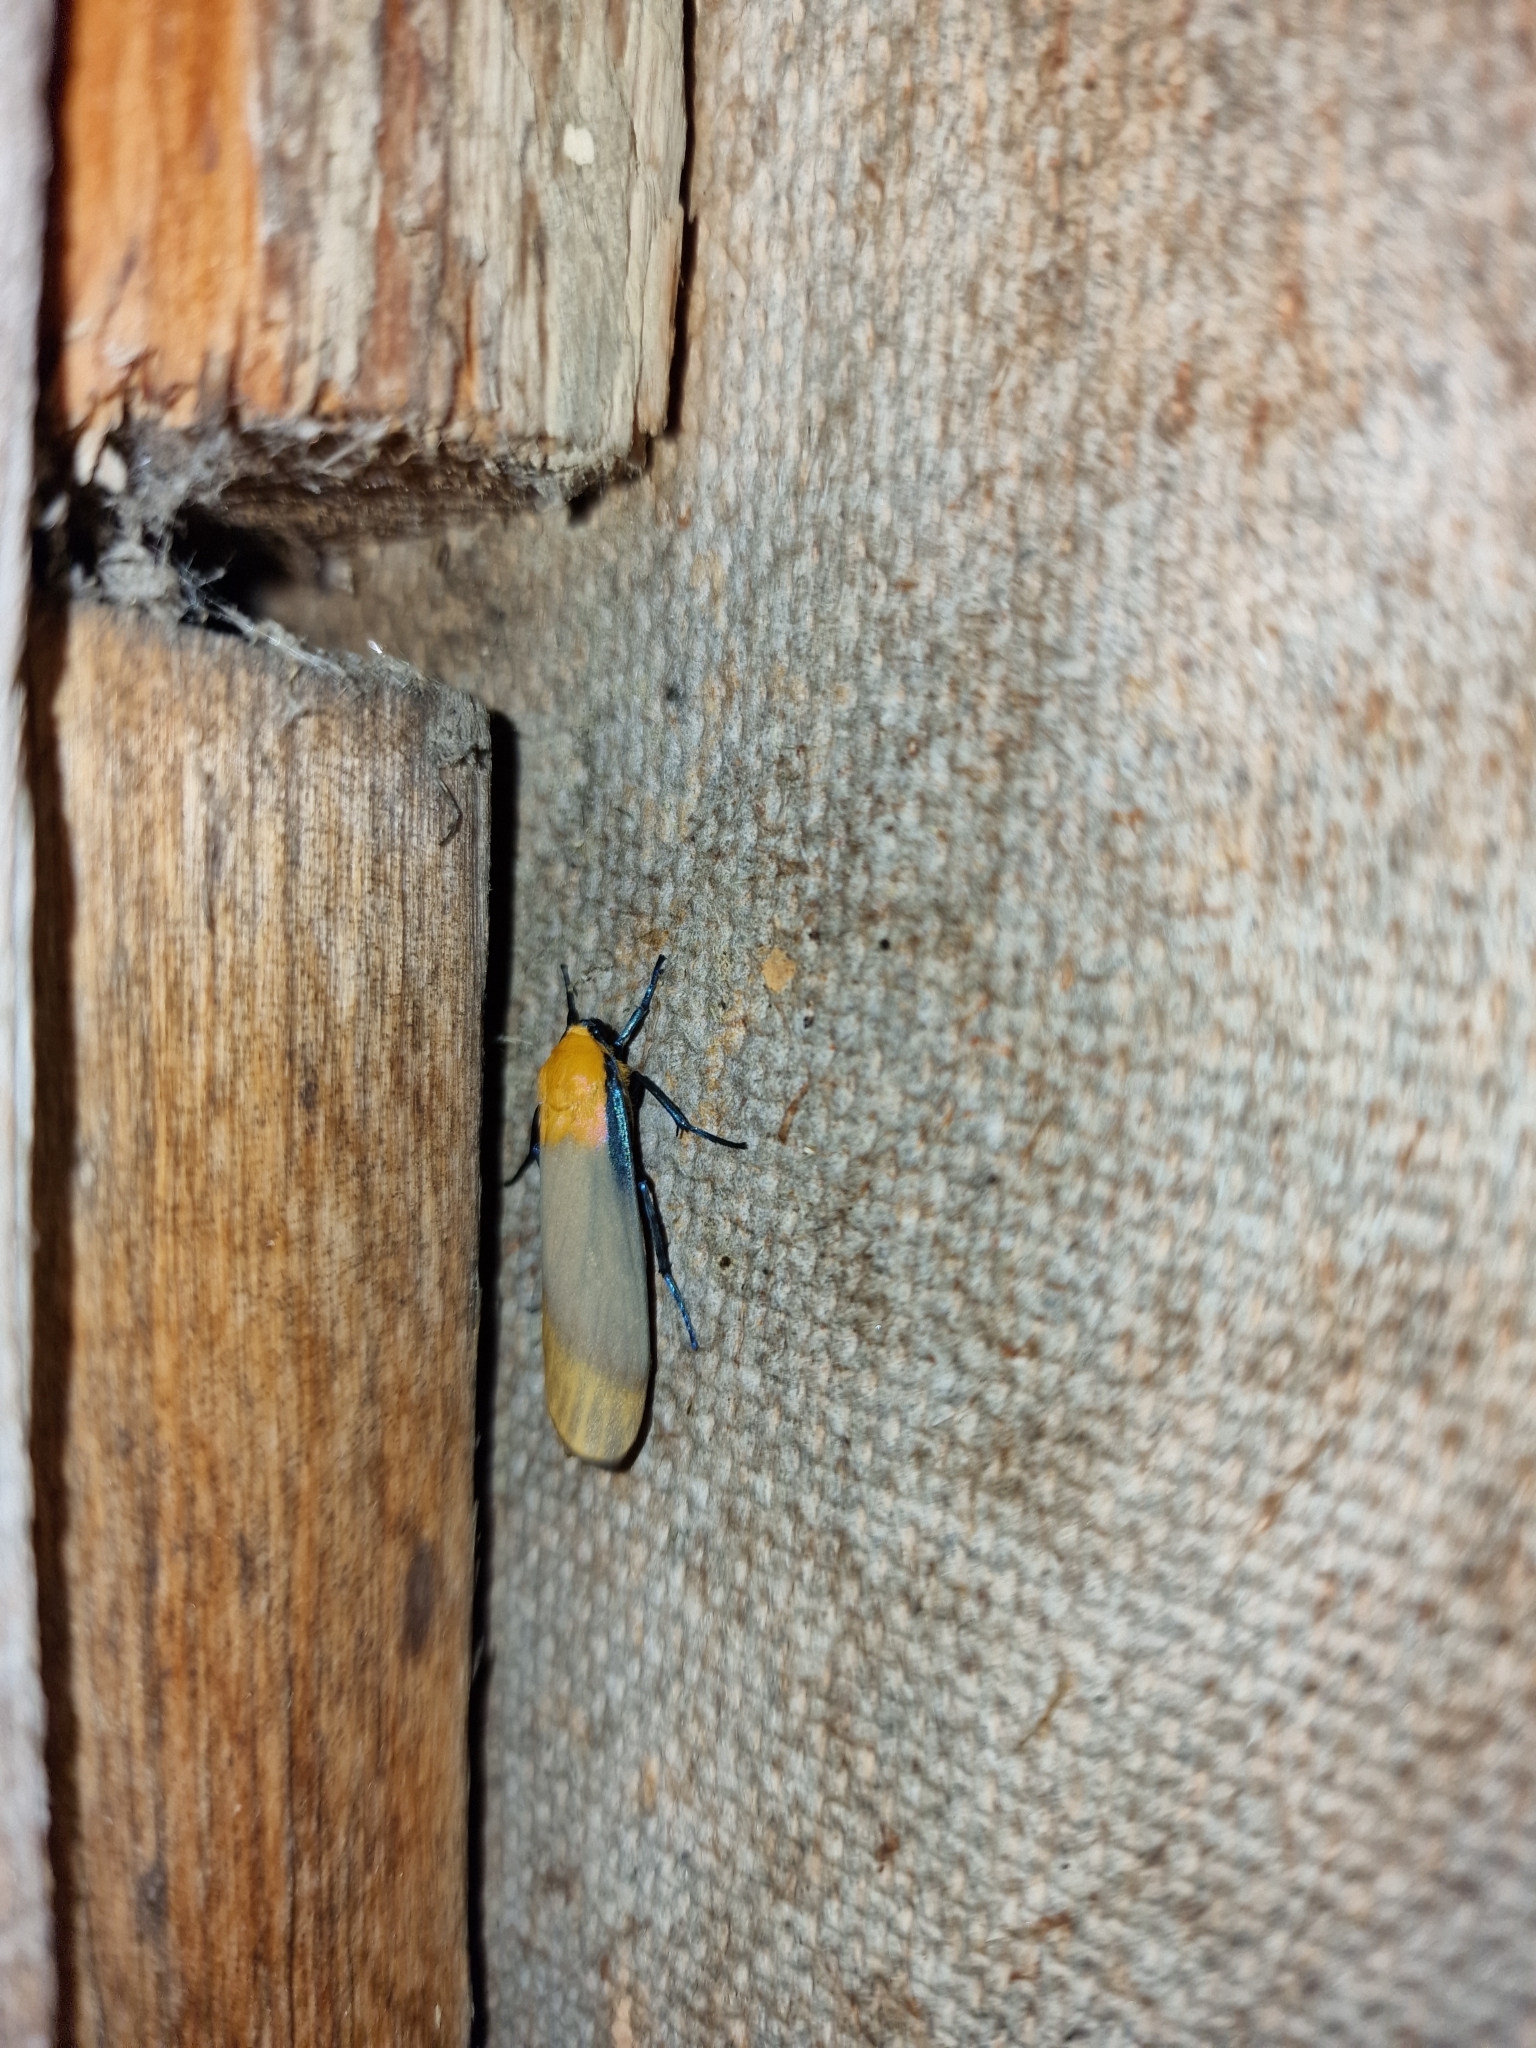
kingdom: Animalia
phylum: Arthropoda
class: Insecta
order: Lepidoptera
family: Erebidae
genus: Lithosia
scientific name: Lithosia quadra
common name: Four-spotted footman
